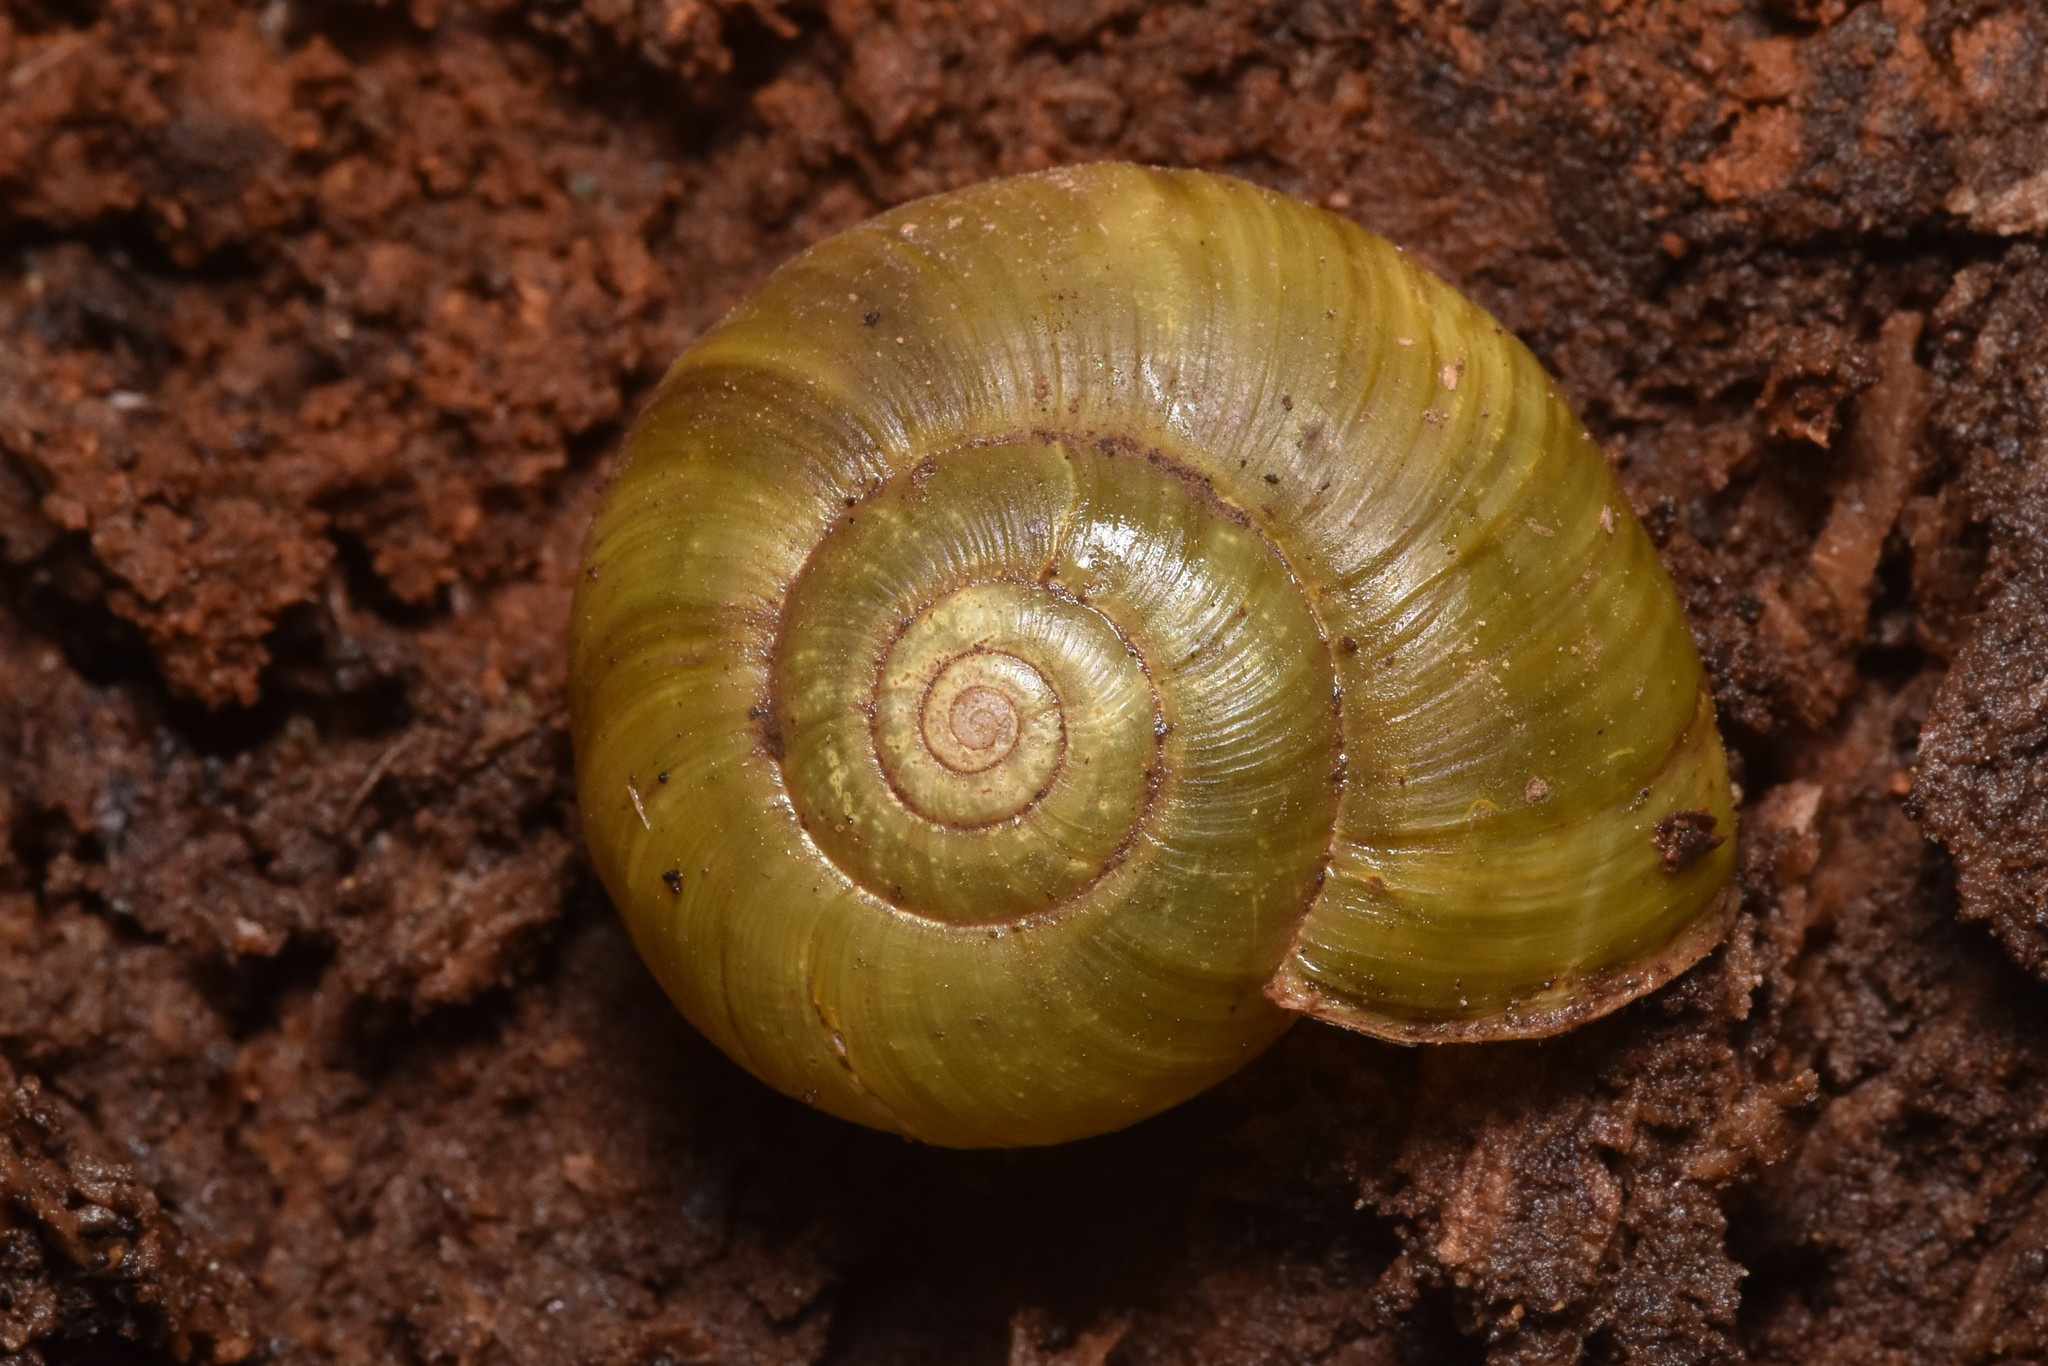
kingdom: Animalia
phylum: Mollusca
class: Gastropoda
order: Stylommatophora
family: Haplotrematidae
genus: Haplotrema
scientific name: Haplotrema vancouverense
